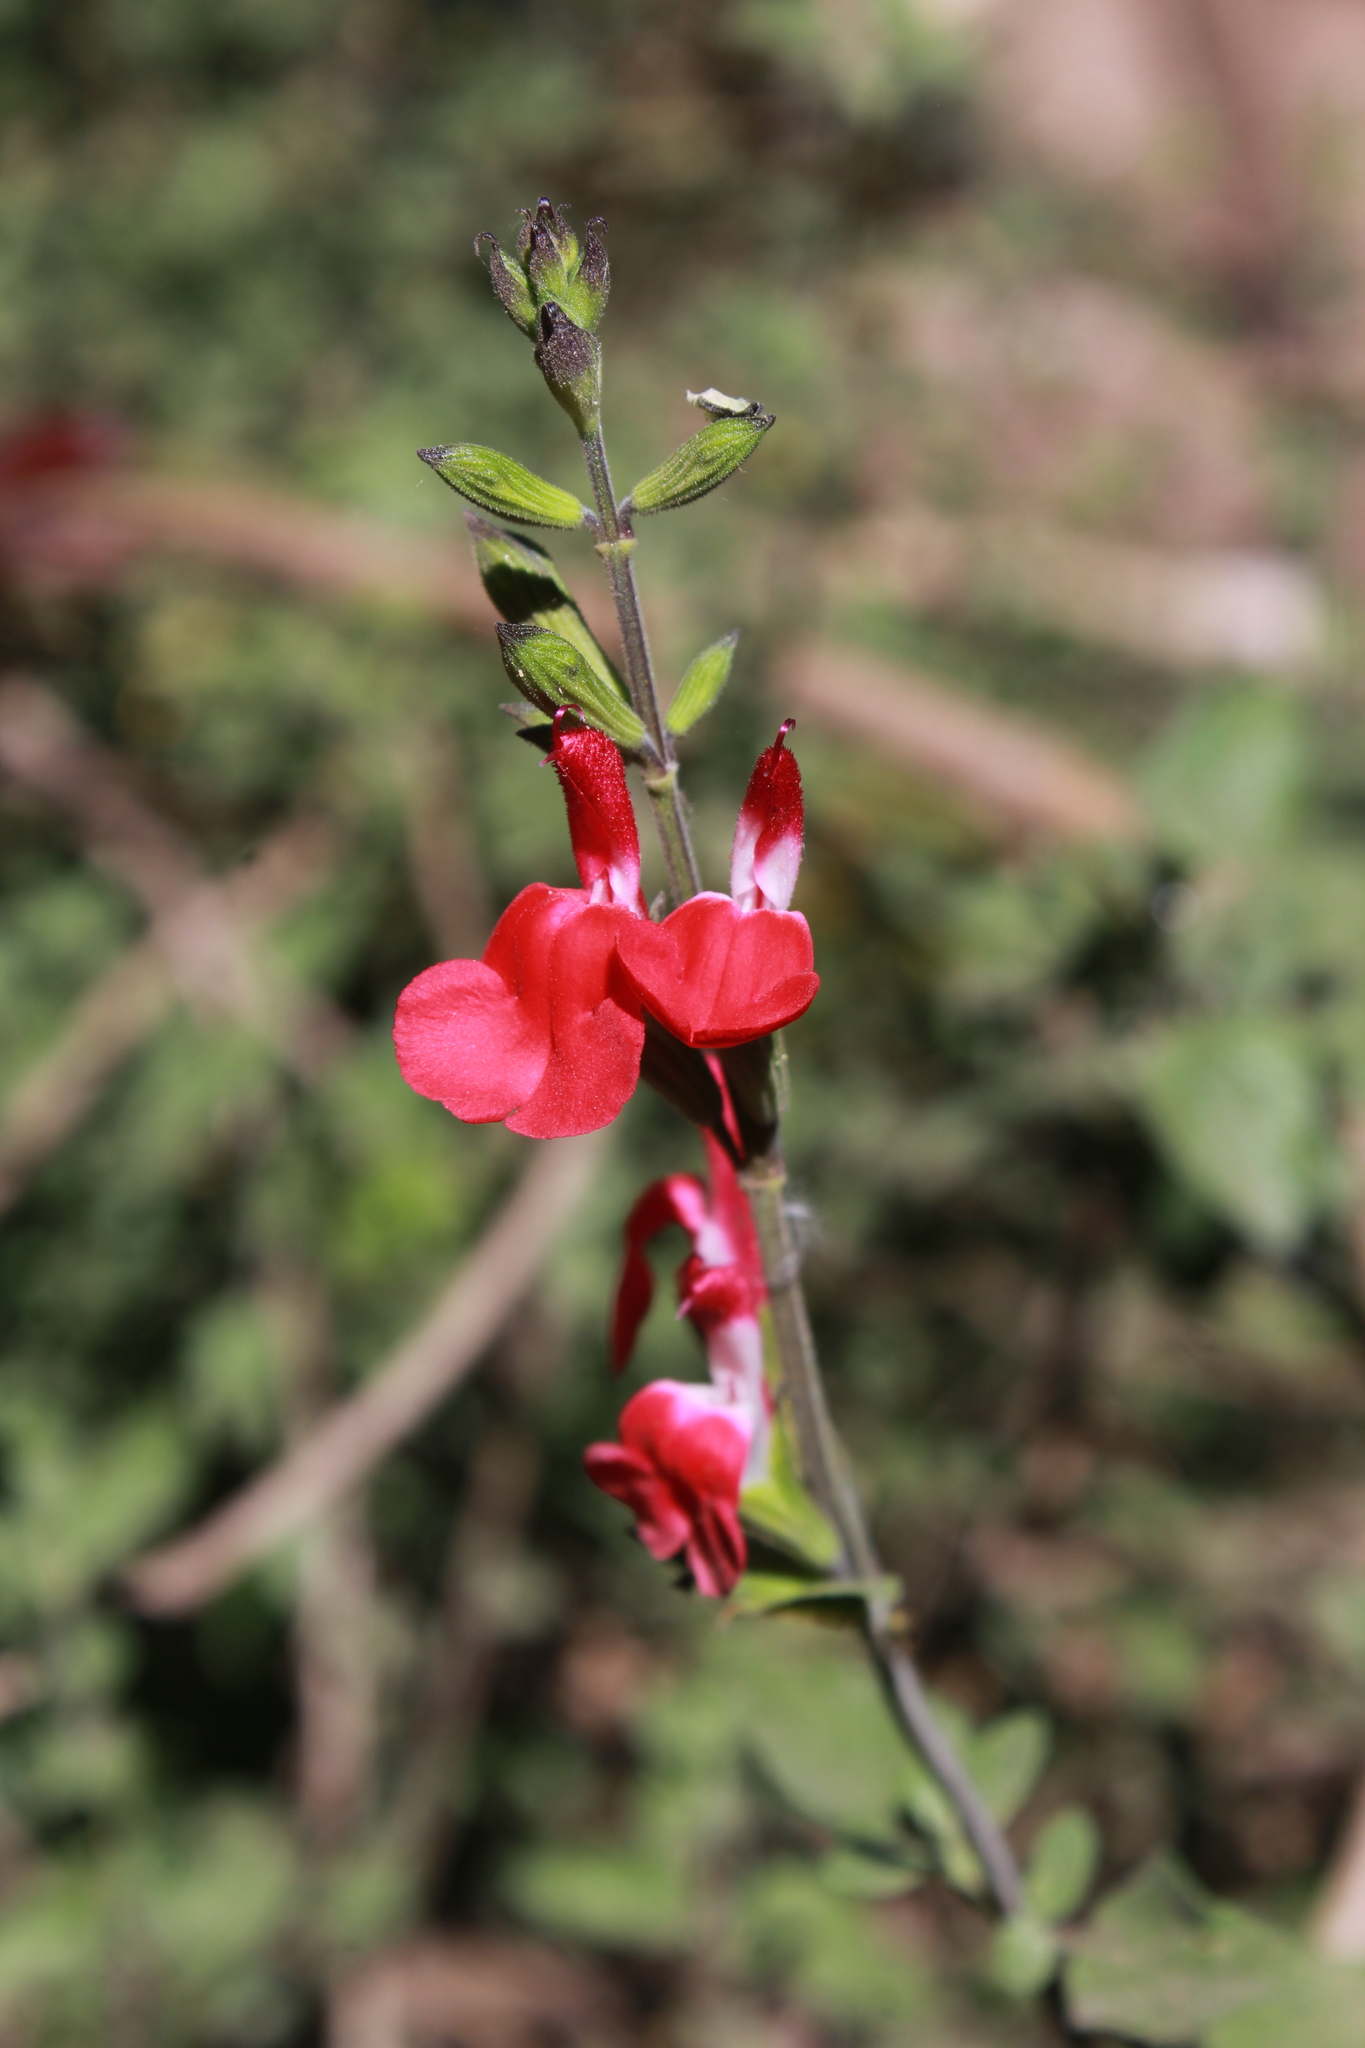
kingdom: Plantae
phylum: Tracheophyta
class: Magnoliopsida
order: Lamiales
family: Lamiaceae
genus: Salvia
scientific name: Salvia microphylla
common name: Baby sage
